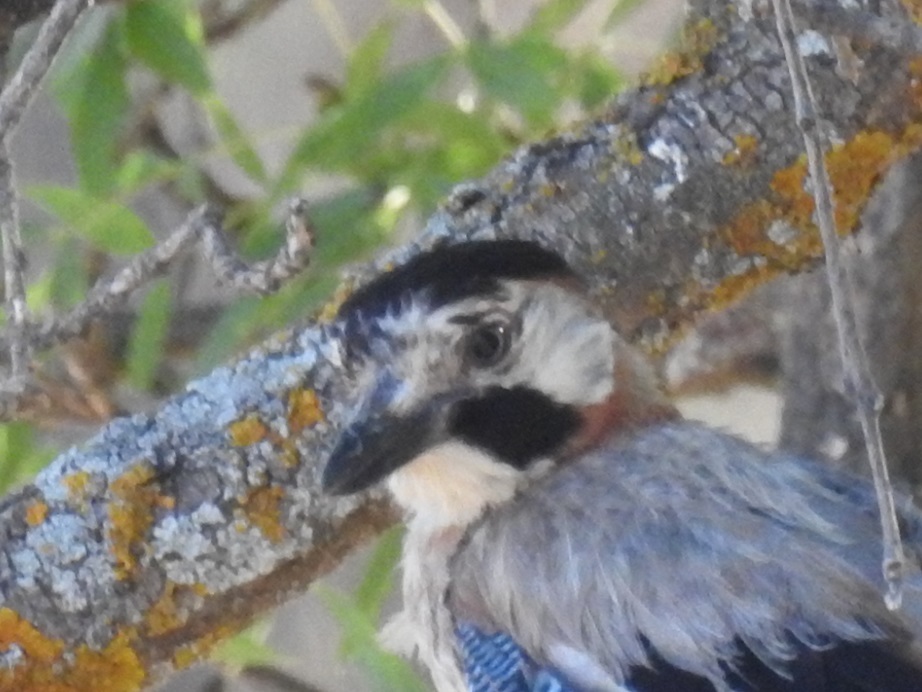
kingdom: Animalia
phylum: Chordata
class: Aves
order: Passeriformes
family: Corvidae
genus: Garrulus
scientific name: Garrulus glandarius
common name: Eurasian jay
